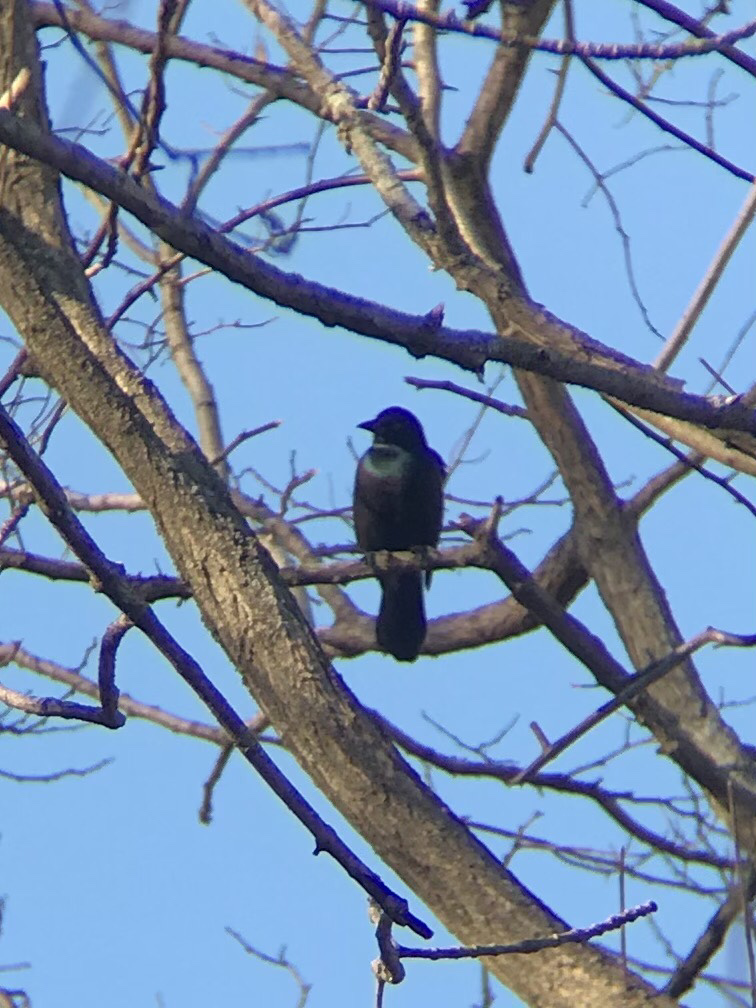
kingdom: Animalia
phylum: Chordata
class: Aves
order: Passeriformes
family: Icteridae
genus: Quiscalus
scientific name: Quiscalus quiscula
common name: Common grackle
